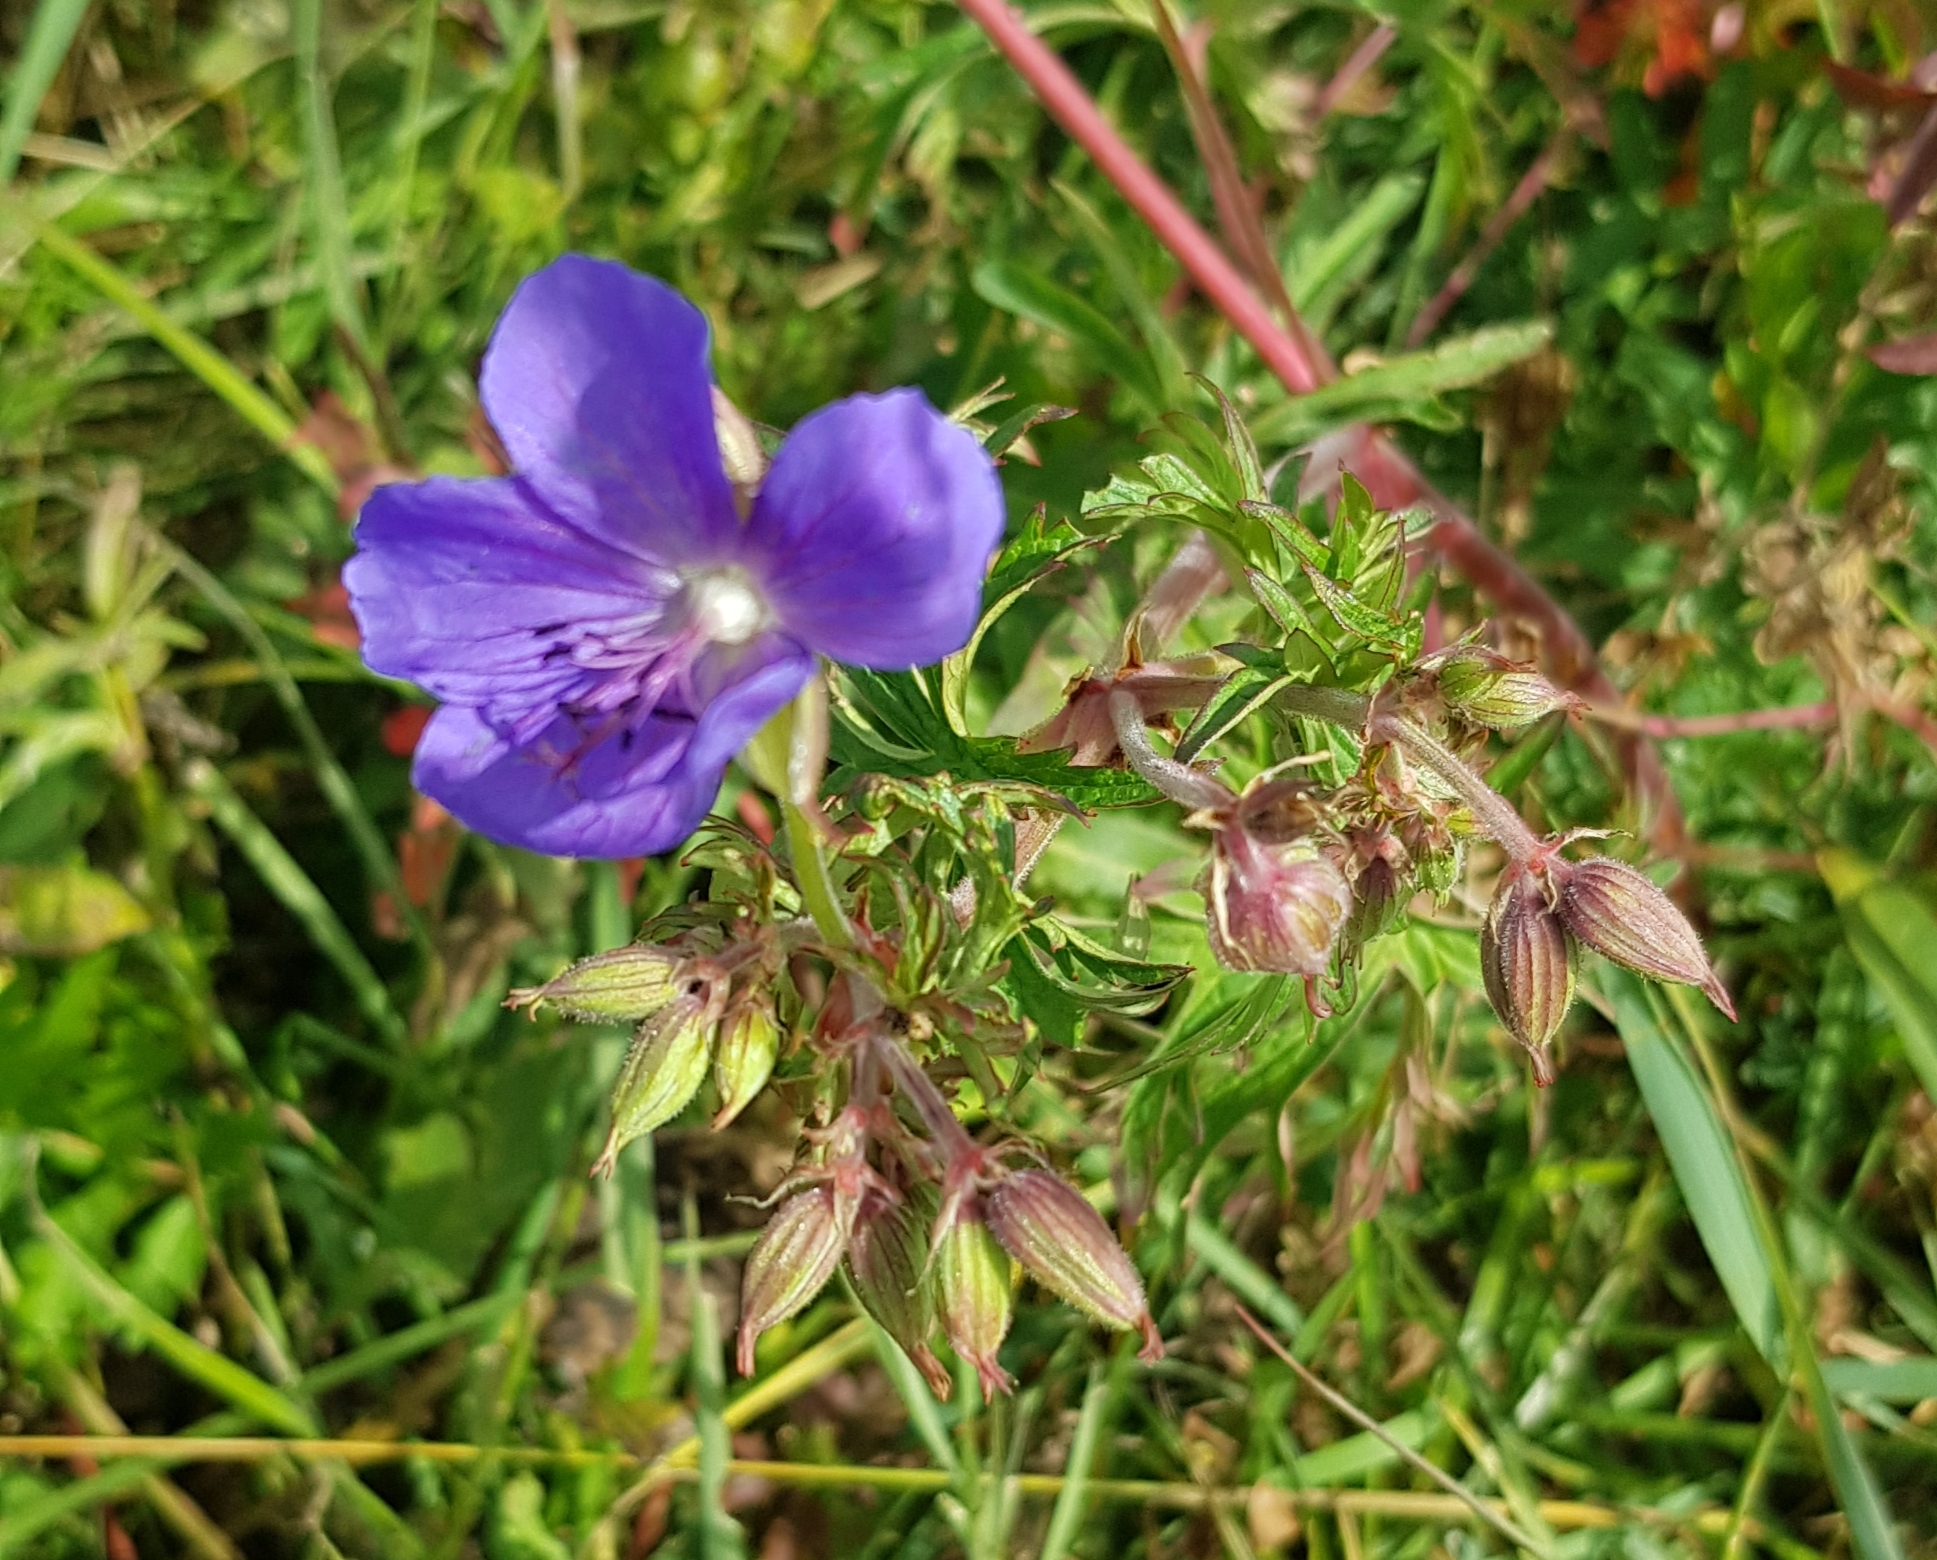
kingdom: Plantae
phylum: Tracheophyta
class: Magnoliopsida
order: Geraniales
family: Geraniaceae
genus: Geranium
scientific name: Geranium pratense
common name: Meadow crane's-bill
